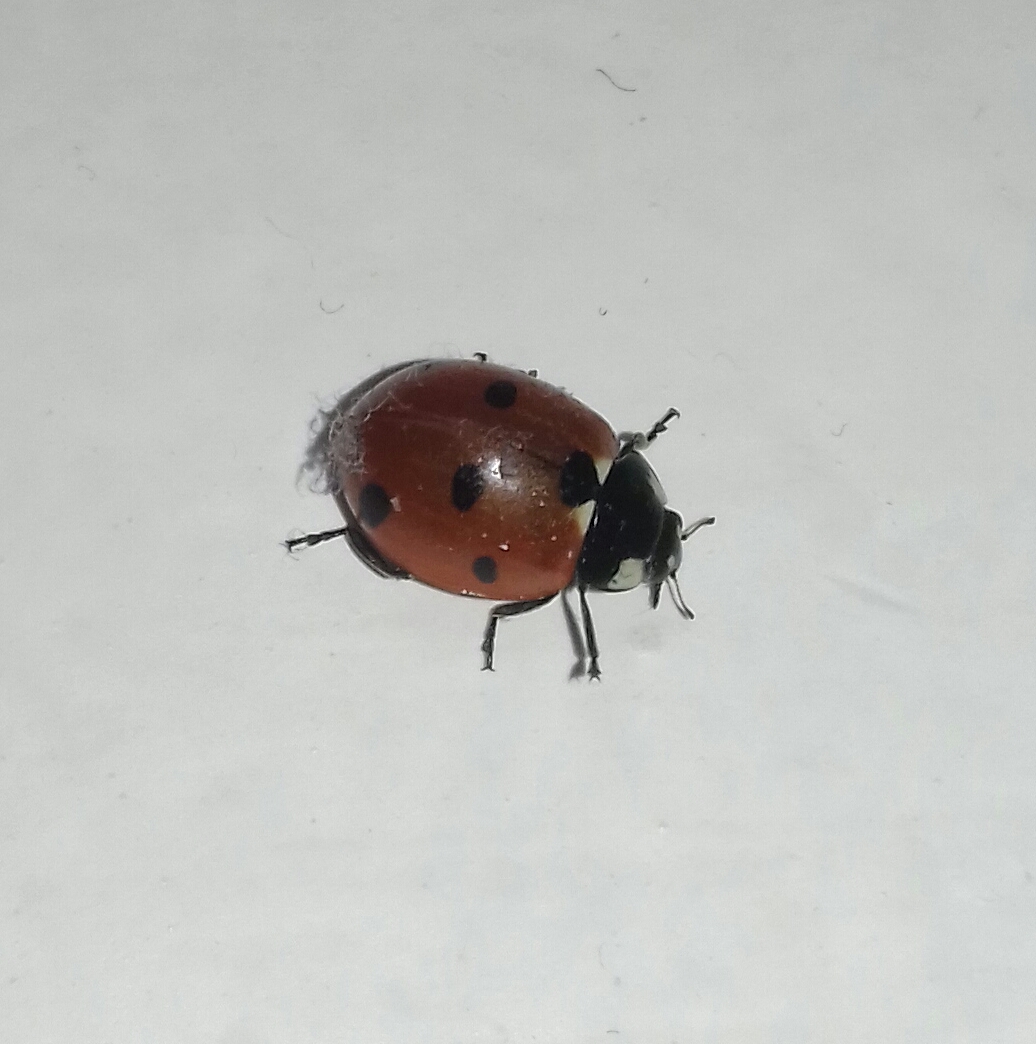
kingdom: Animalia
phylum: Arthropoda
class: Insecta
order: Coleoptera
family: Coccinellidae
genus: Coccinella
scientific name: Coccinella septempunctata
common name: Sevenspotted lady beetle
